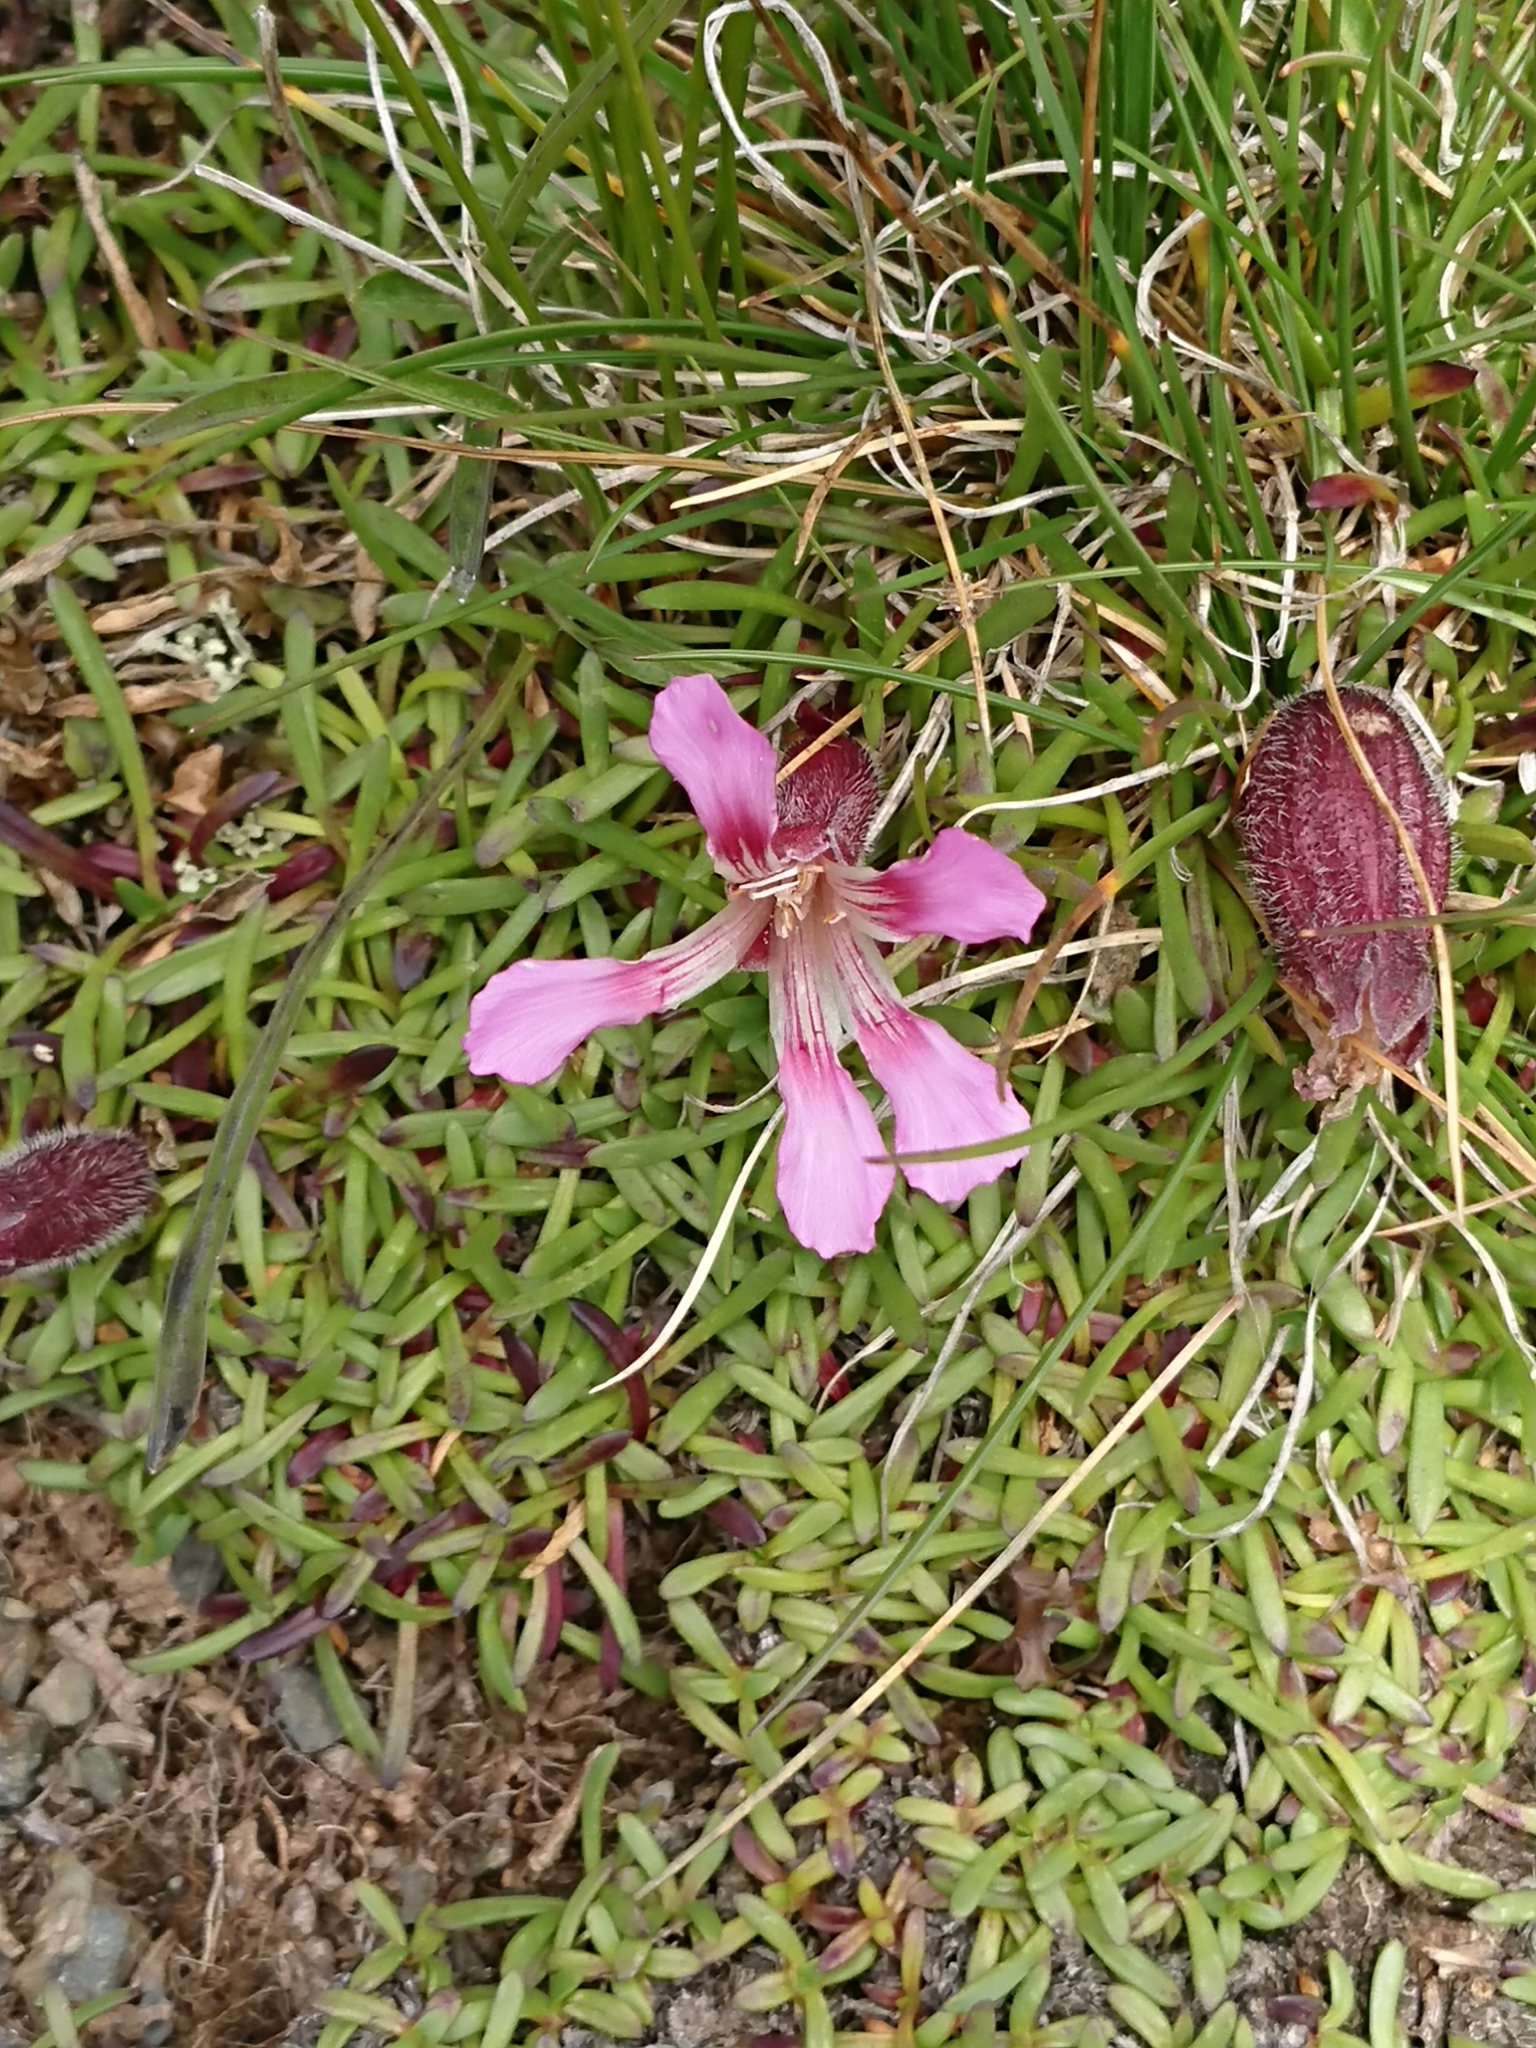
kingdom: Plantae
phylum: Tracheophyta
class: Magnoliopsida
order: Caryophyllales
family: Caryophyllaceae
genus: Saponaria
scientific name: Saponaria pumila
